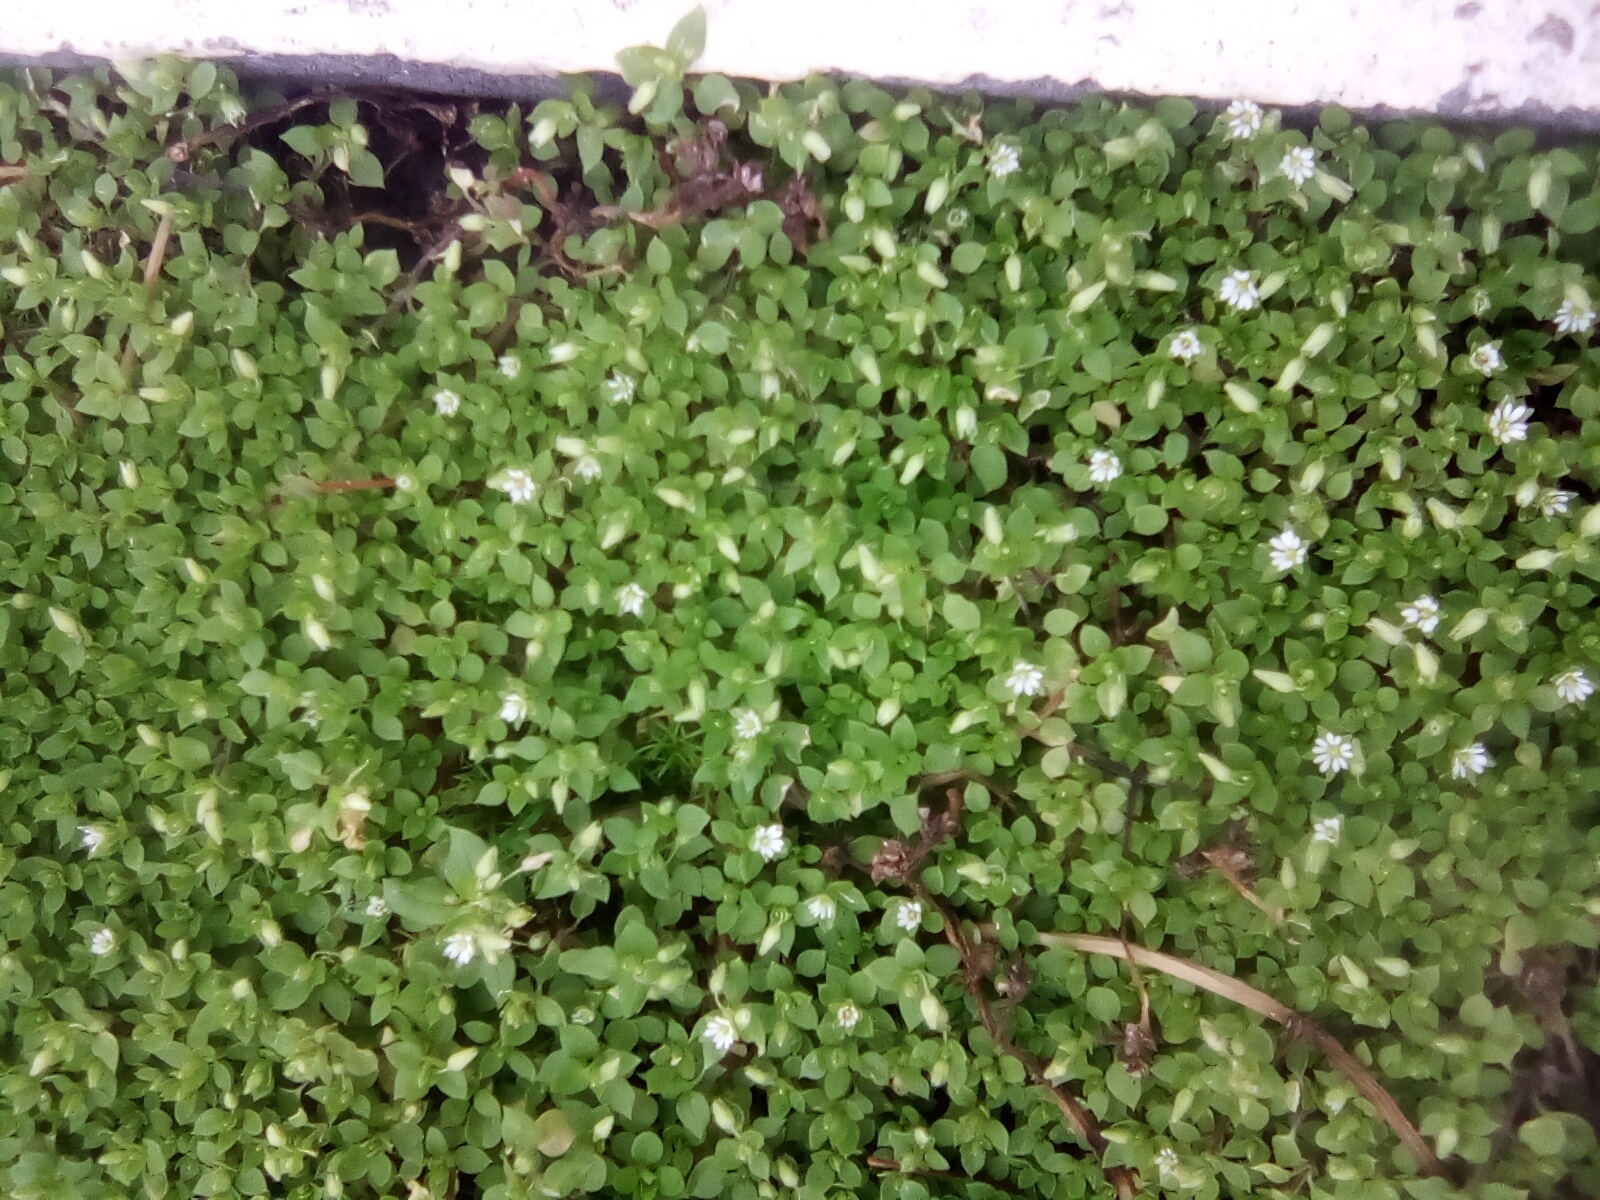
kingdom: Plantae
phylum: Tracheophyta
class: Magnoliopsida
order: Caryophyllales
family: Caryophyllaceae
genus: Stellaria
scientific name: Stellaria media
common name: Common chickweed
